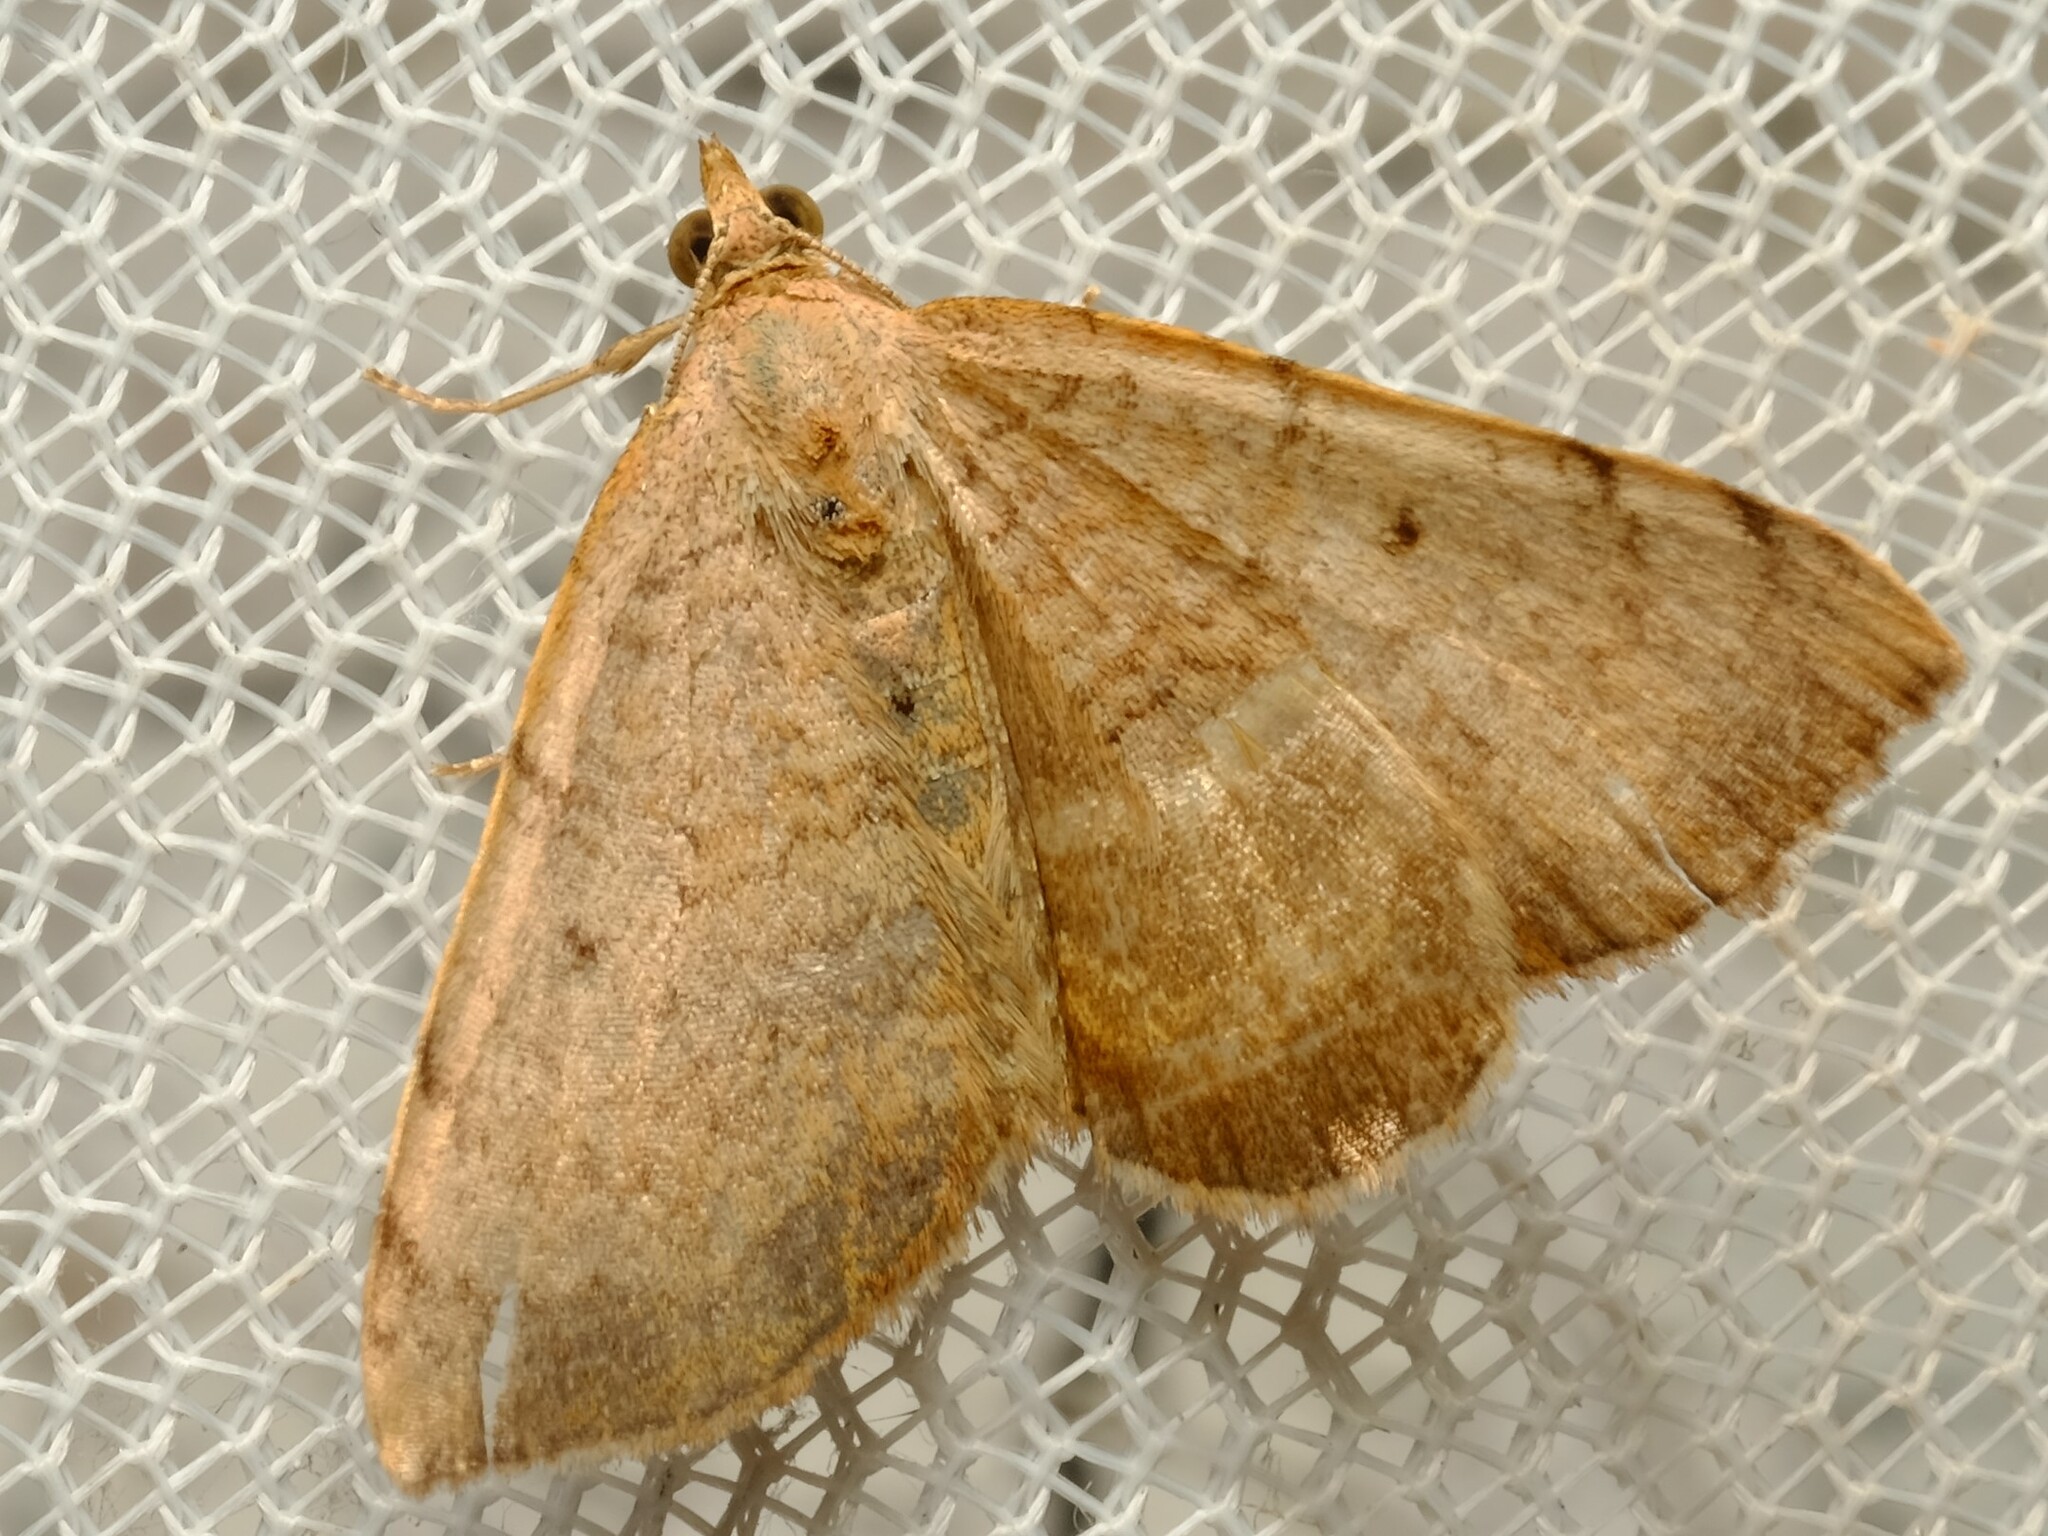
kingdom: Animalia
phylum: Arthropoda
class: Insecta
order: Lepidoptera
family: Geometridae
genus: Chrysolarentia
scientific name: Chrysolarentia mecynata
